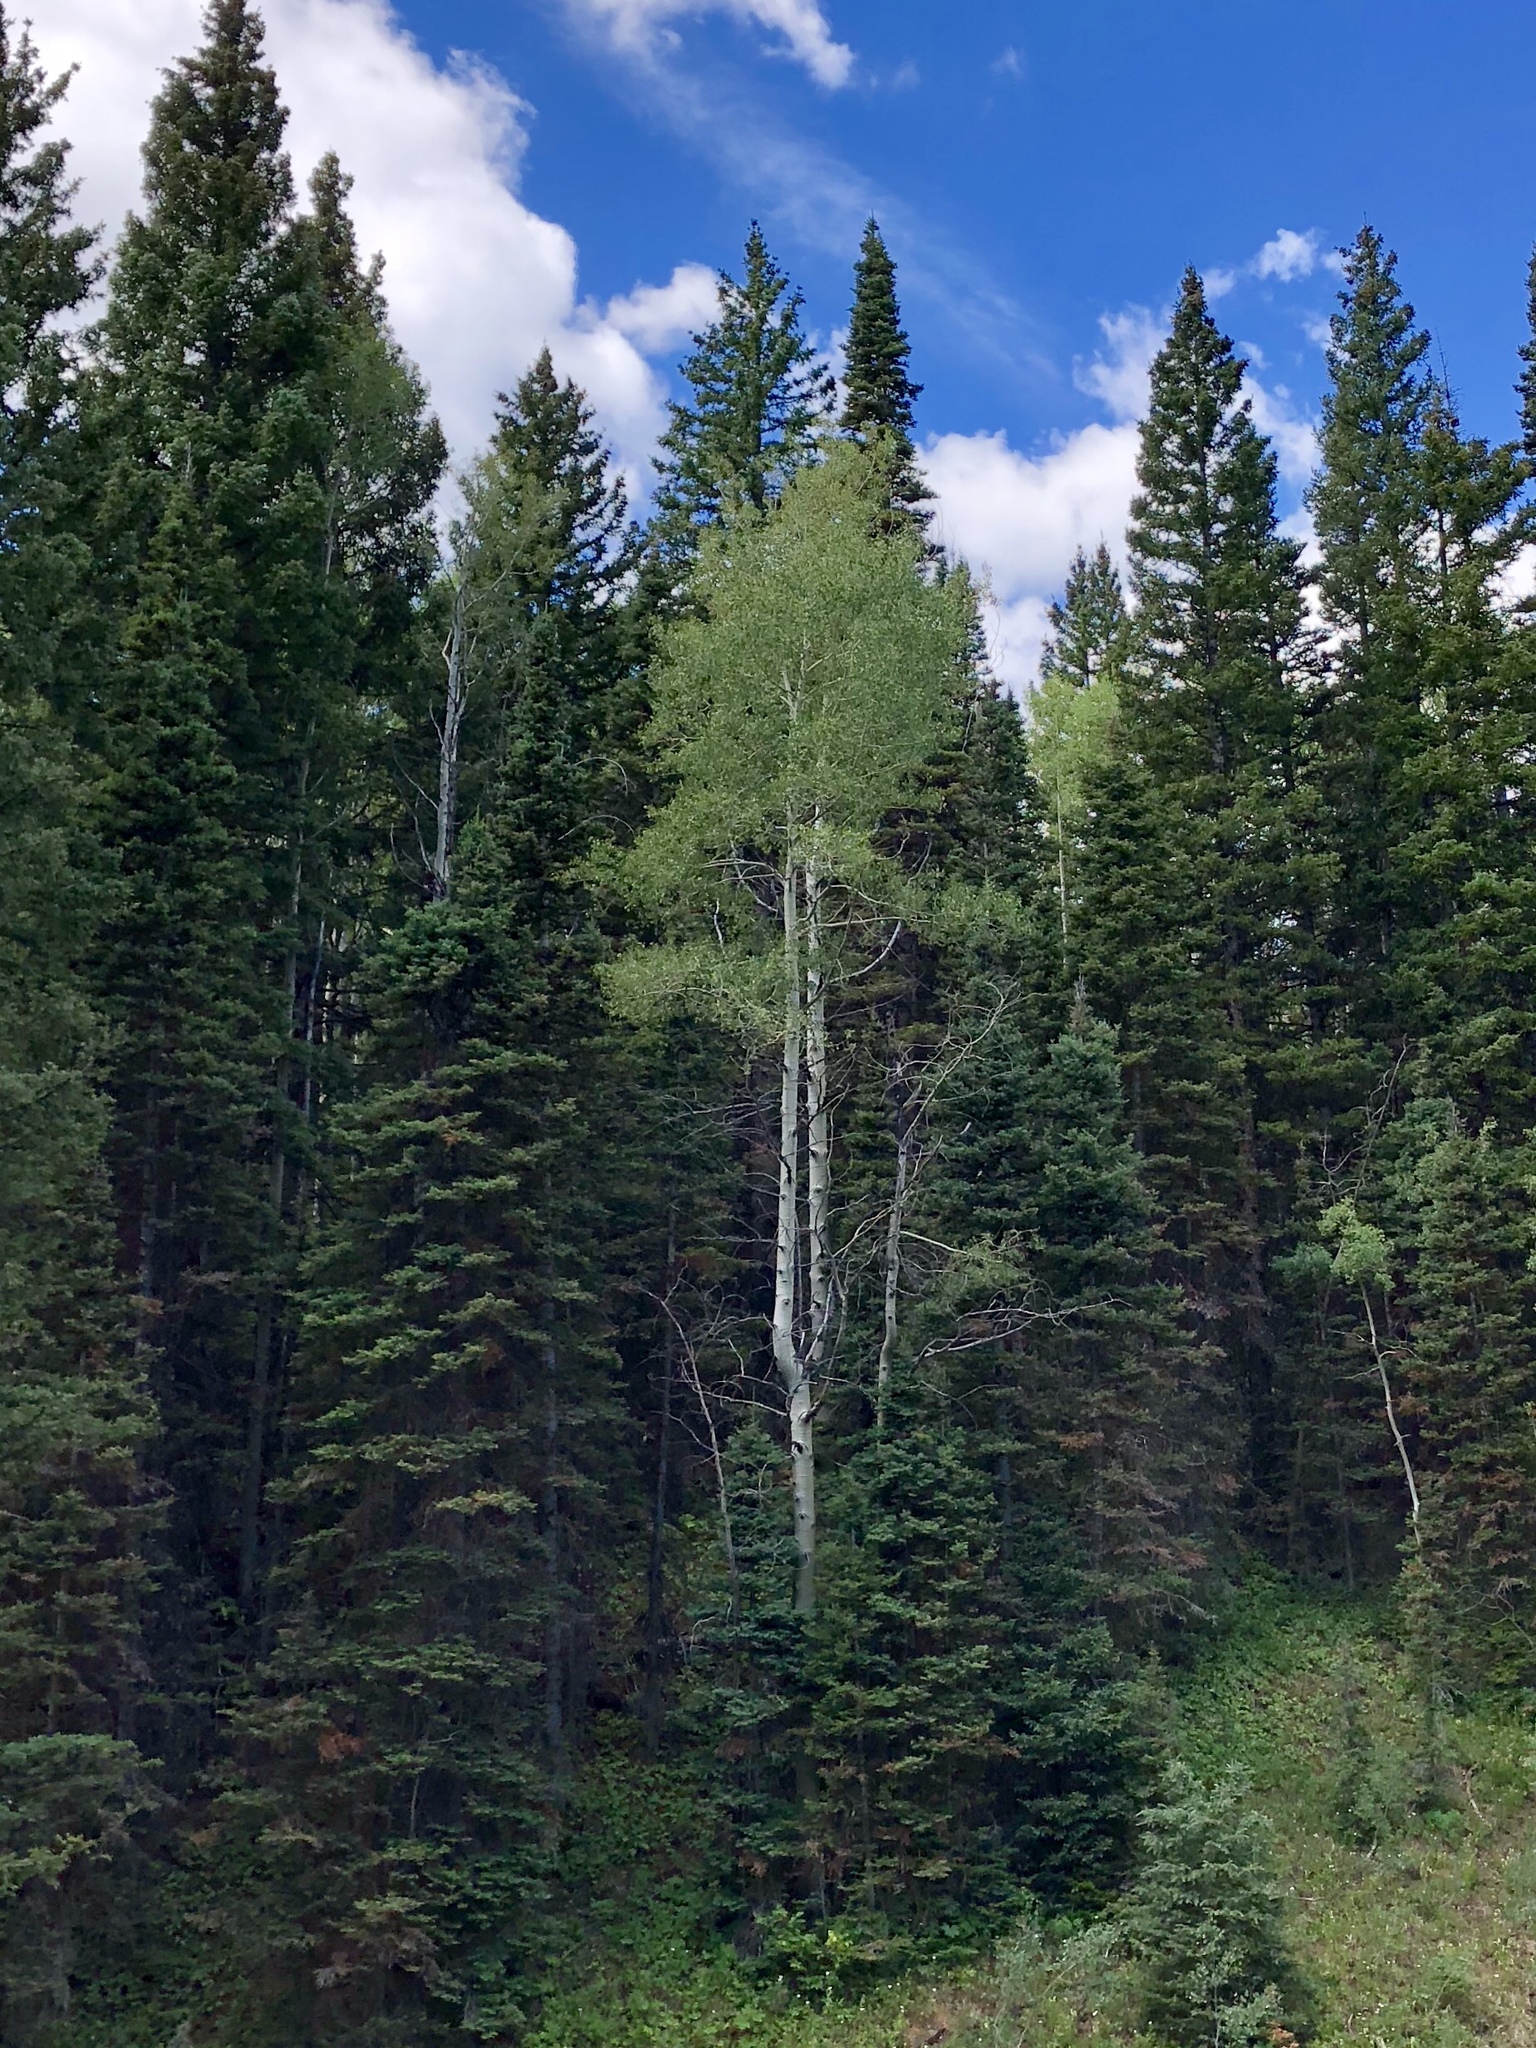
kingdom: Plantae
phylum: Tracheophyta
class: Magnoliopsida
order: Malpighiales
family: Salicaceae
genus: Populus
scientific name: Populus tremuloides
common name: Quaking aspen
